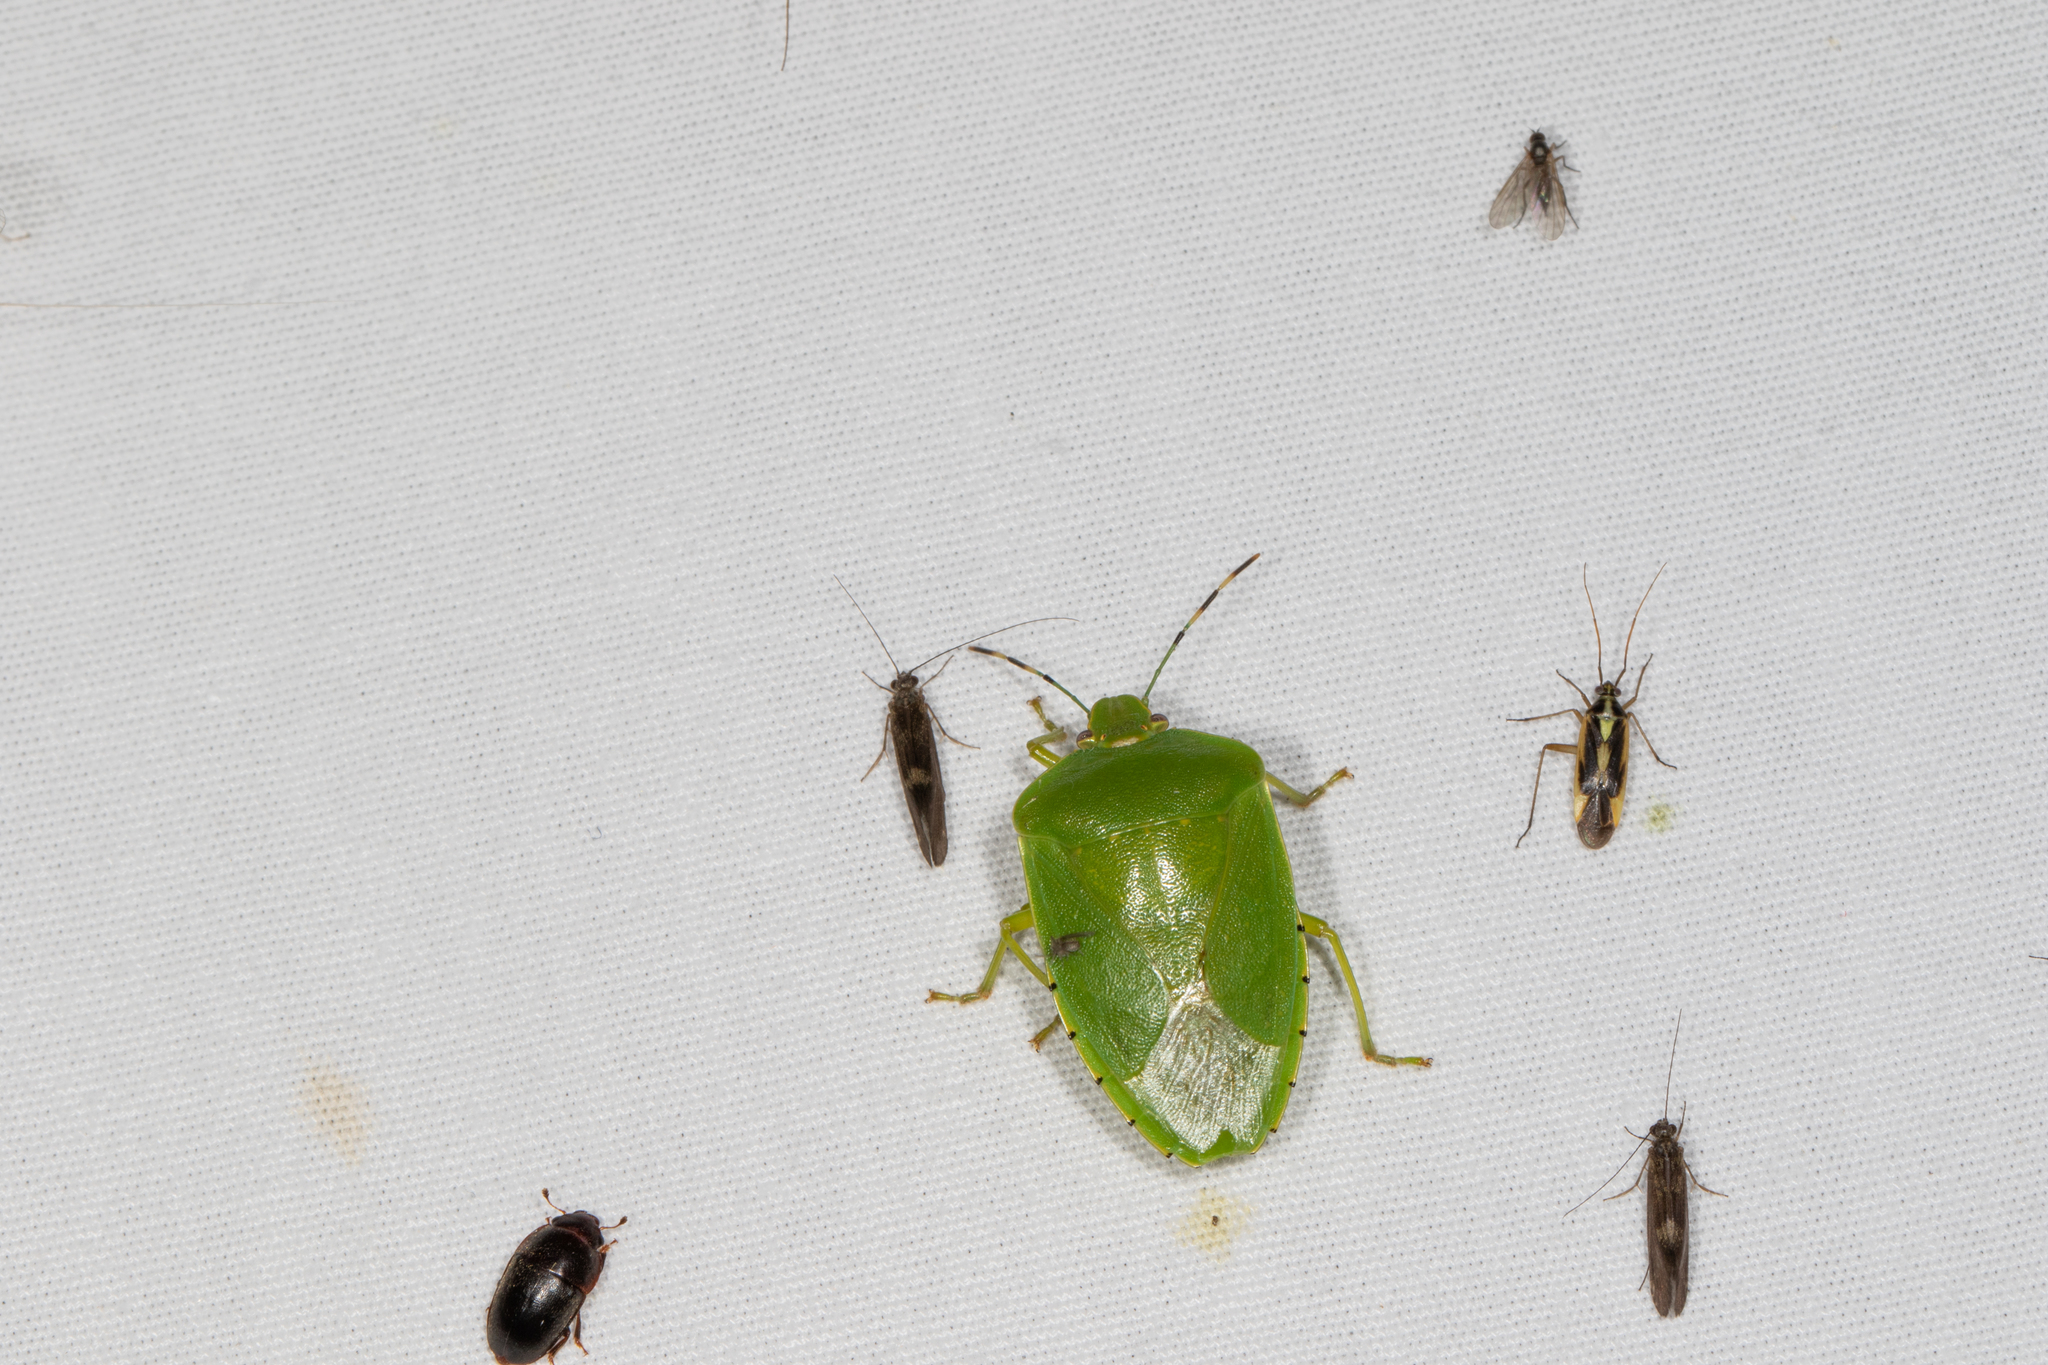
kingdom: Animalia
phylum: Arthropoda
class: Insecta
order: Hemiptera
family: Pentatomidae
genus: Chinavia
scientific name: Chinavia hilaris
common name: Green stink bug
